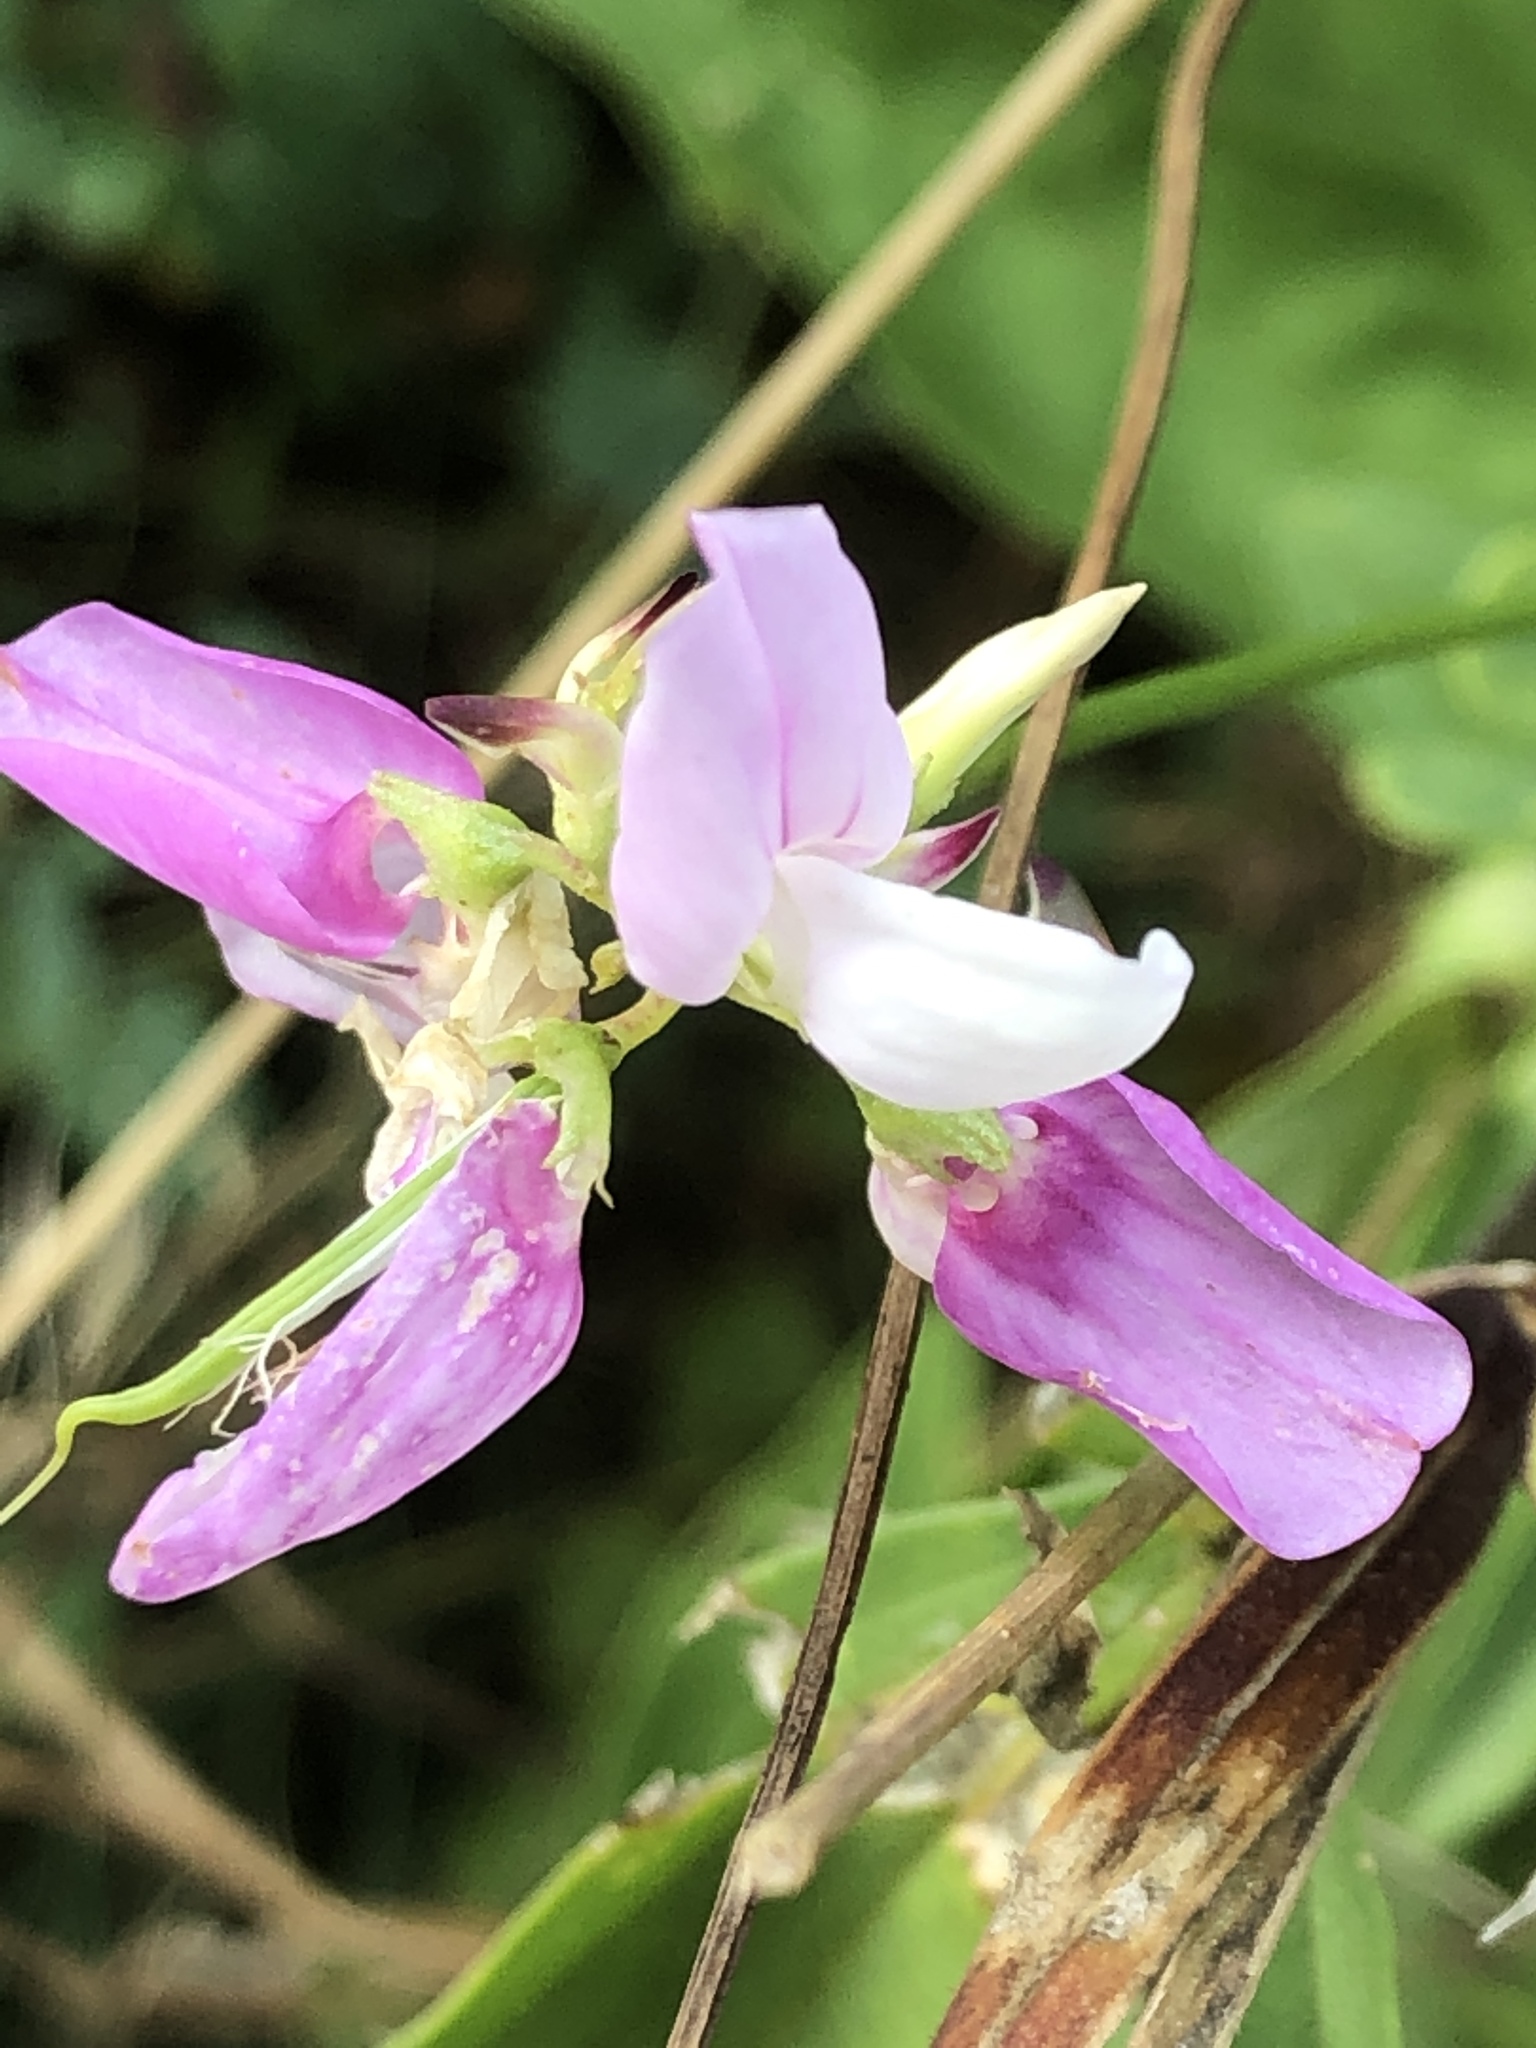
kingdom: Plantae
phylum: Tracheophyta
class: Magnoliopsida
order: Fabales
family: Fabaceae
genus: Coronilla
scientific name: Coronilla varia
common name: Crownvetch
